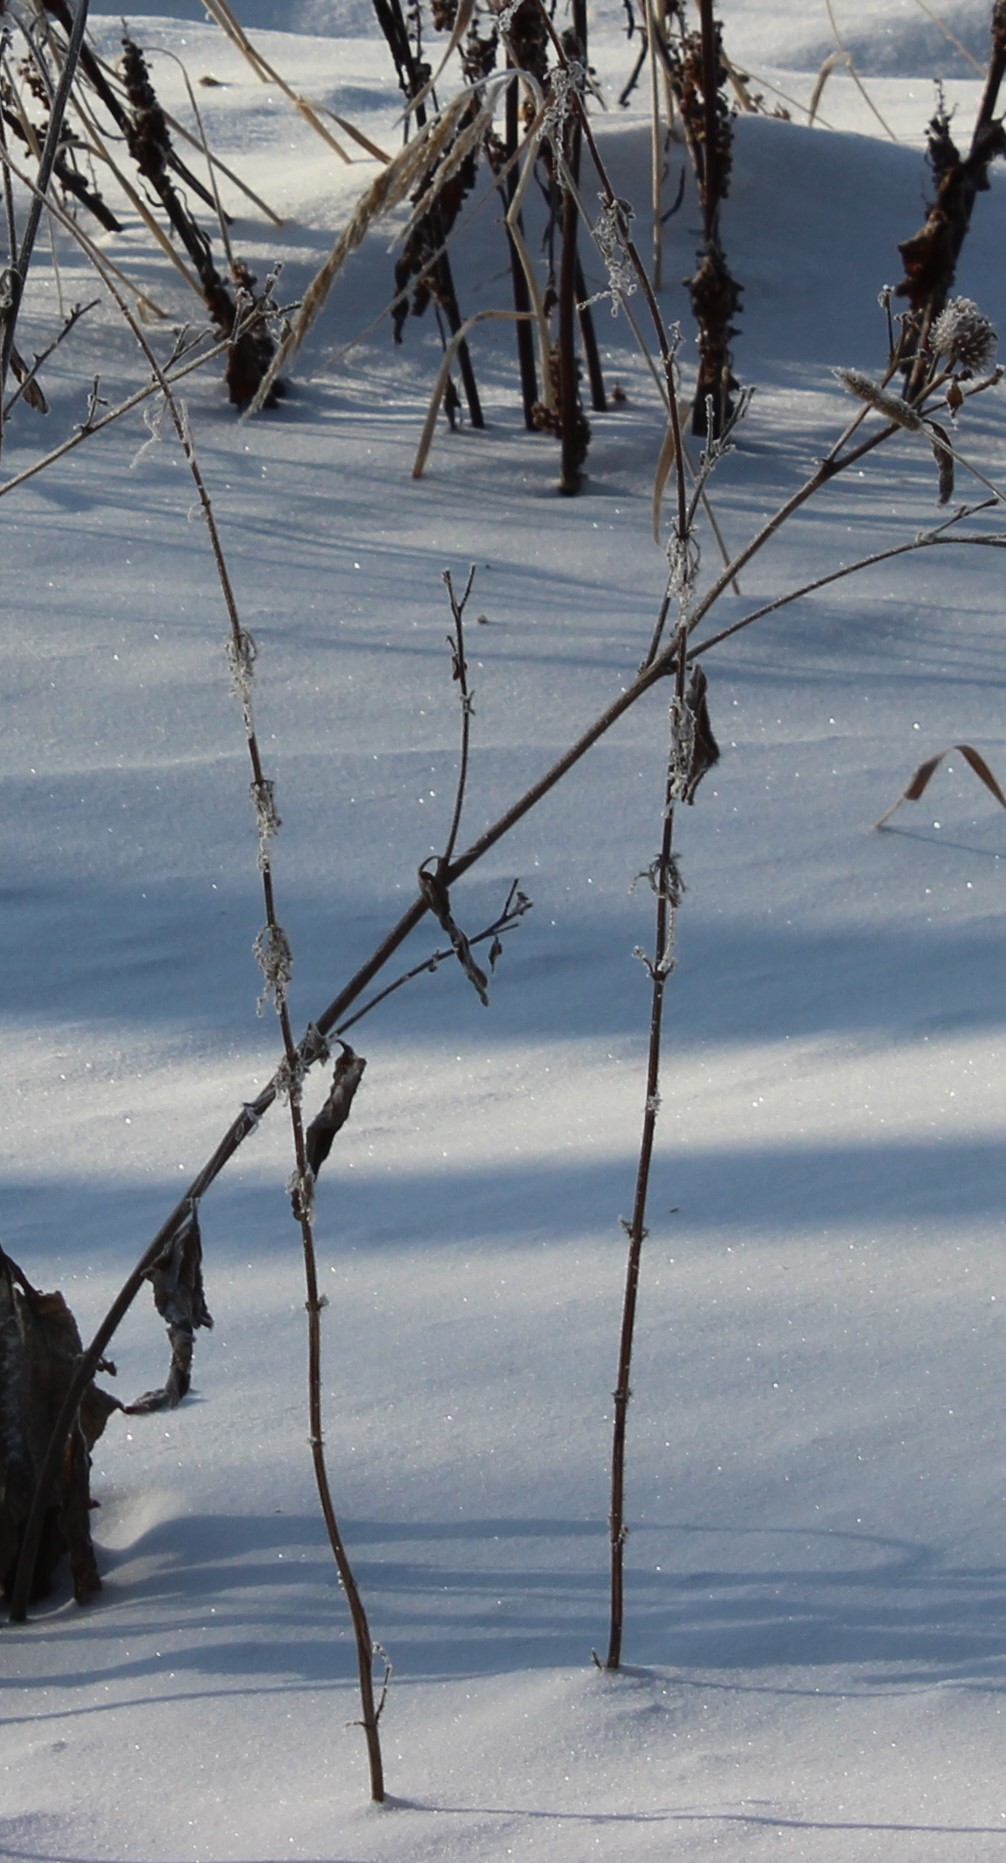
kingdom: Plantae
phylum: Tracheophyta
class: Magnoliopsida
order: Rosales
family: Urticaceae
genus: Urtica
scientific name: Urtica dioica
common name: Common nettle
